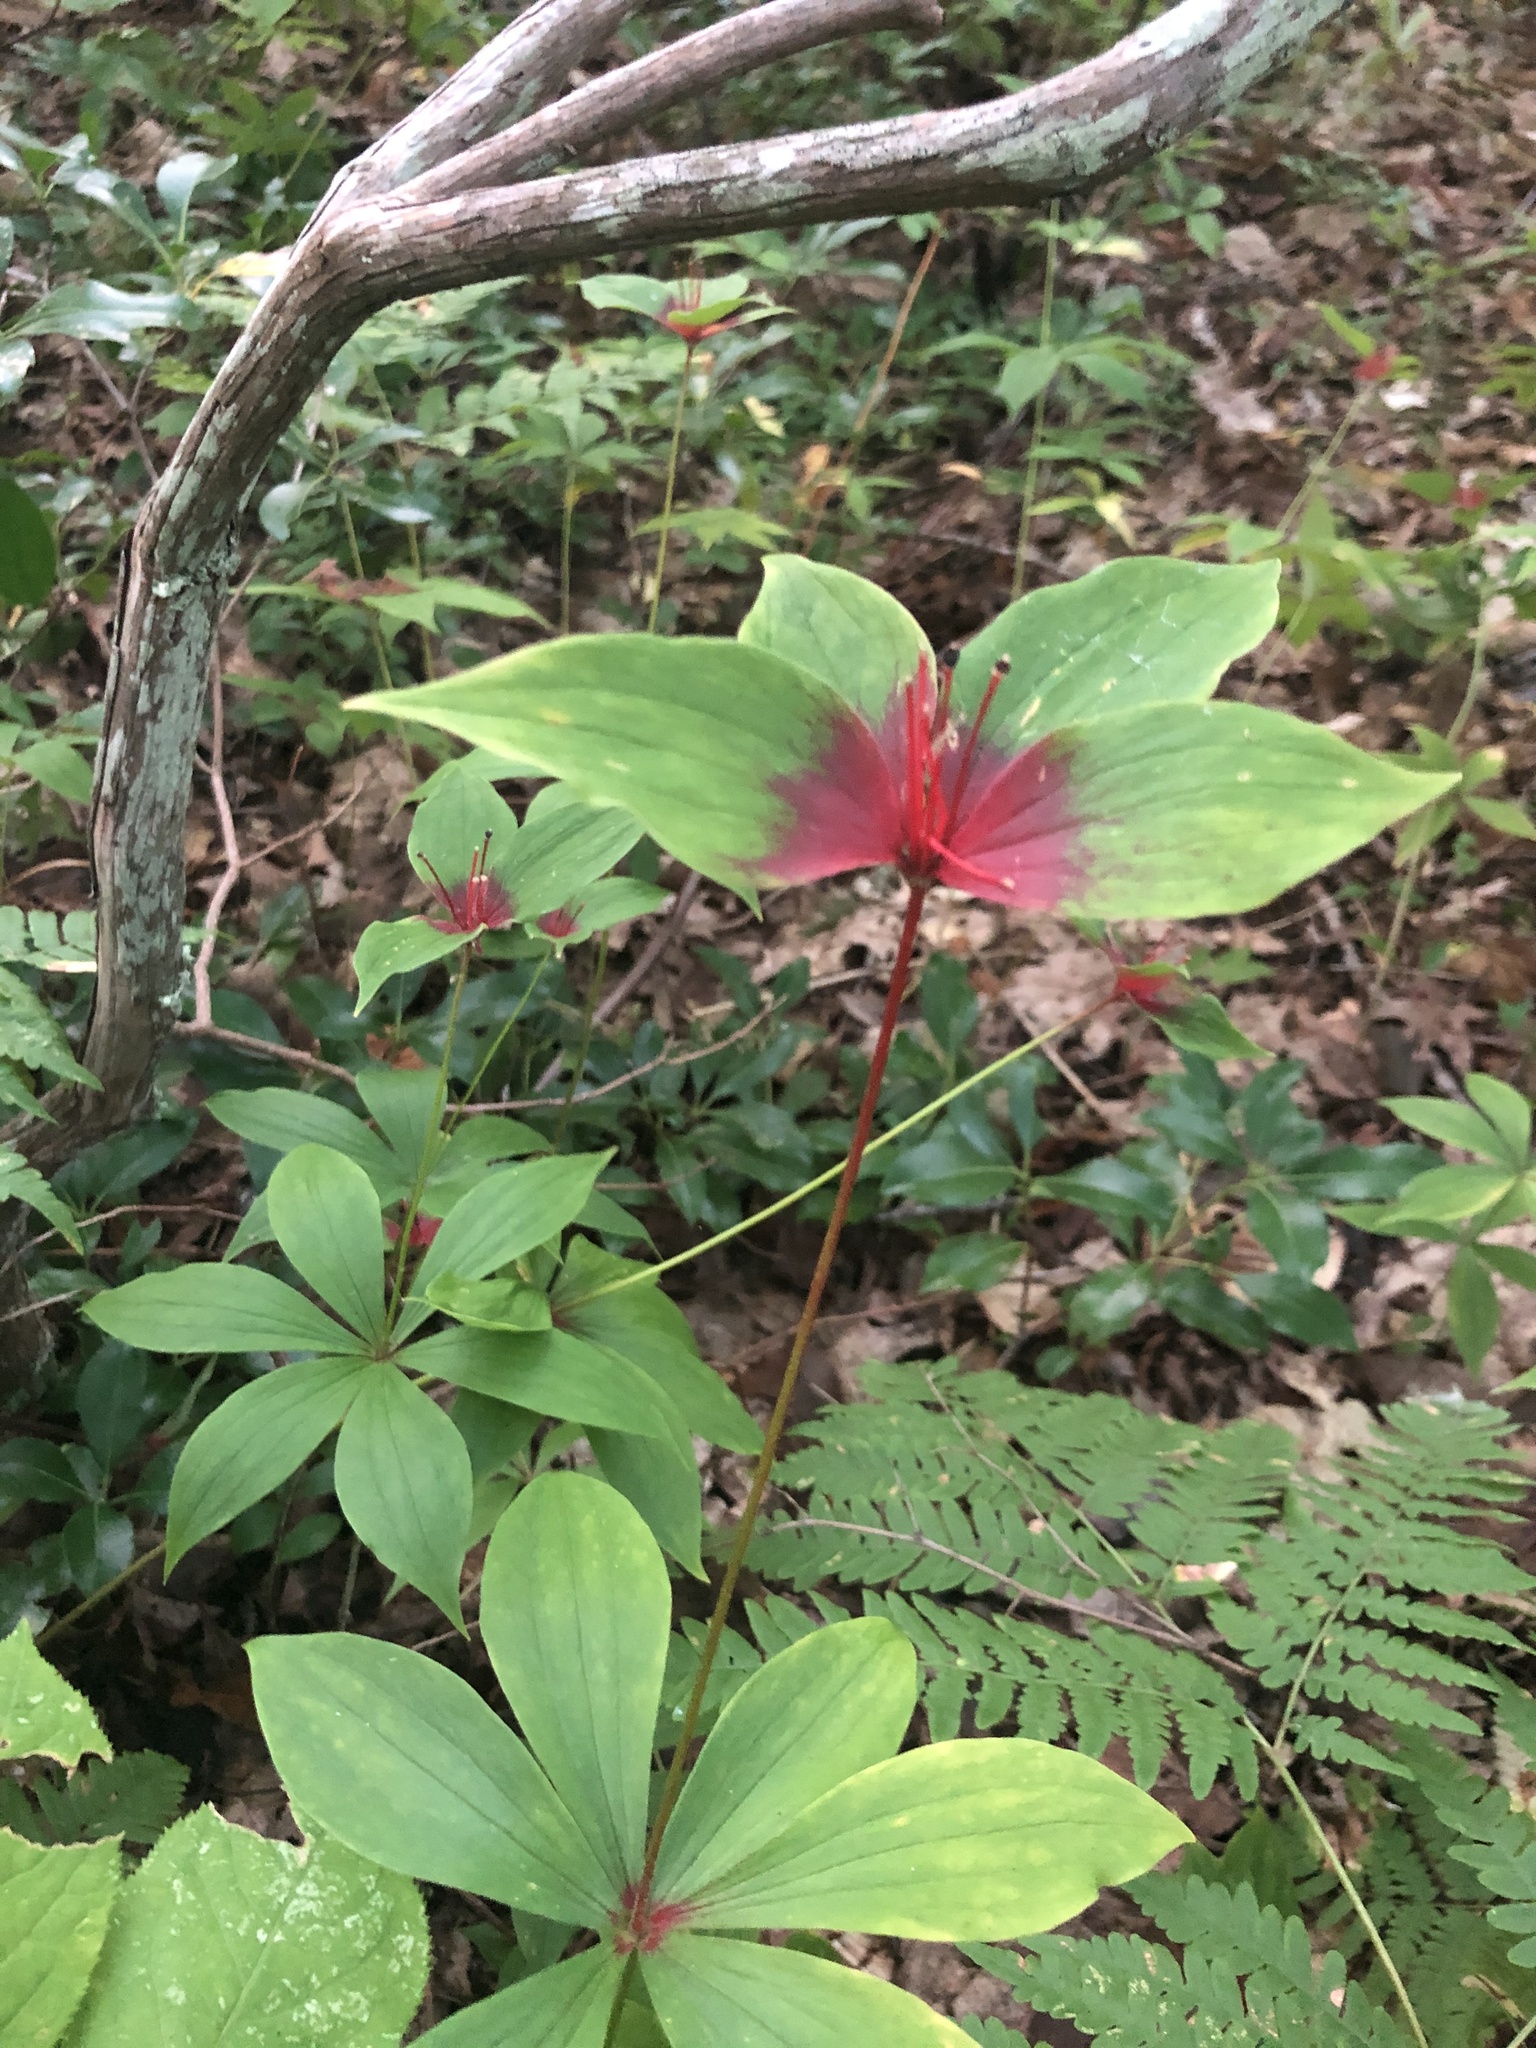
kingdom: Plantae
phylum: Tracheophyta
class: Liliopsida
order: Liliales
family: Liliaceae
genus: Medeola
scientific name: Medeola virginiana
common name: Indian cucumber-root
